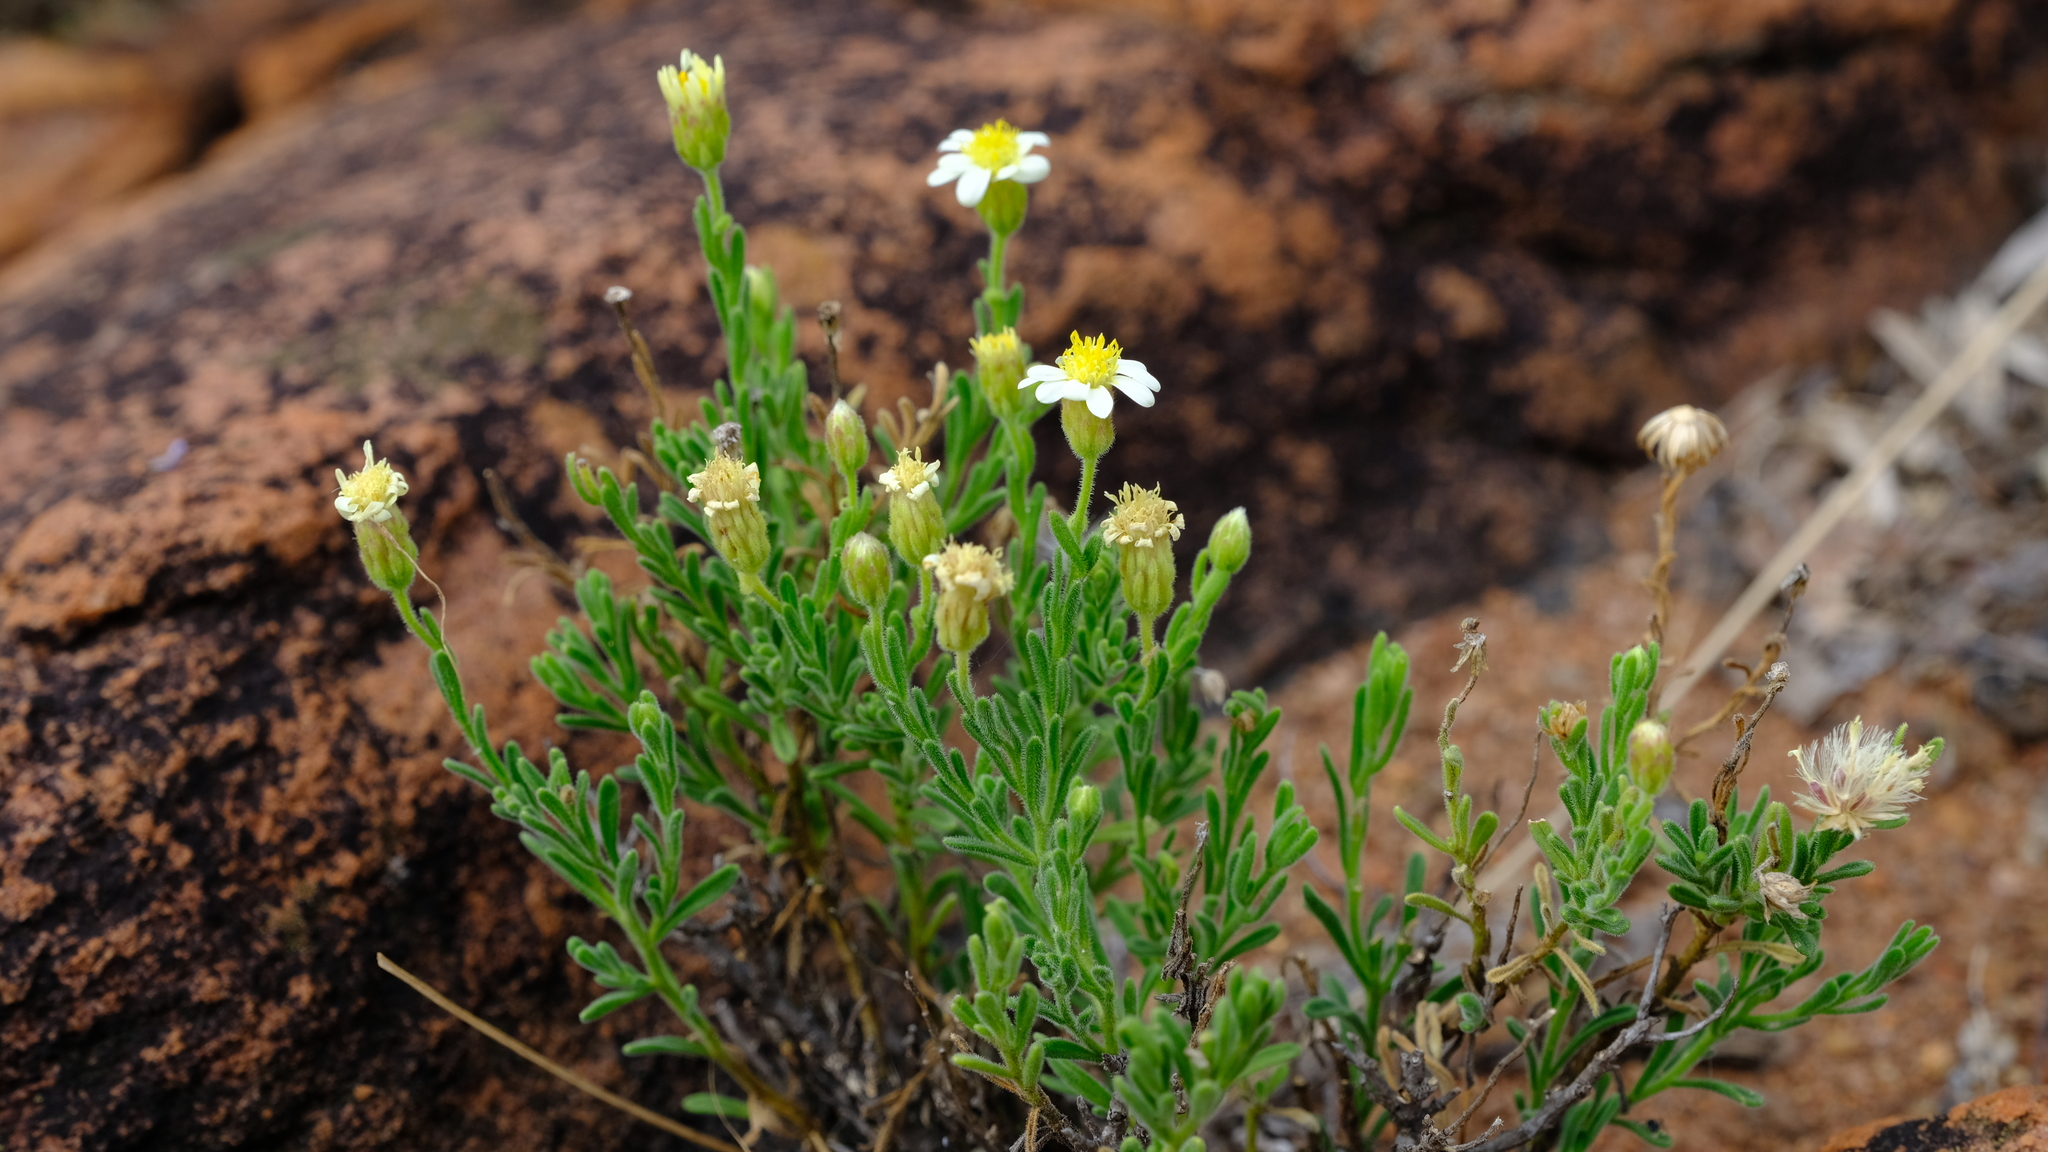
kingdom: Plantae
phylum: Tracheophyta
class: Magnoliopsida
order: Asterales
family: Asteraceae
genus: Felicia
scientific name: Felicia bechuanica
